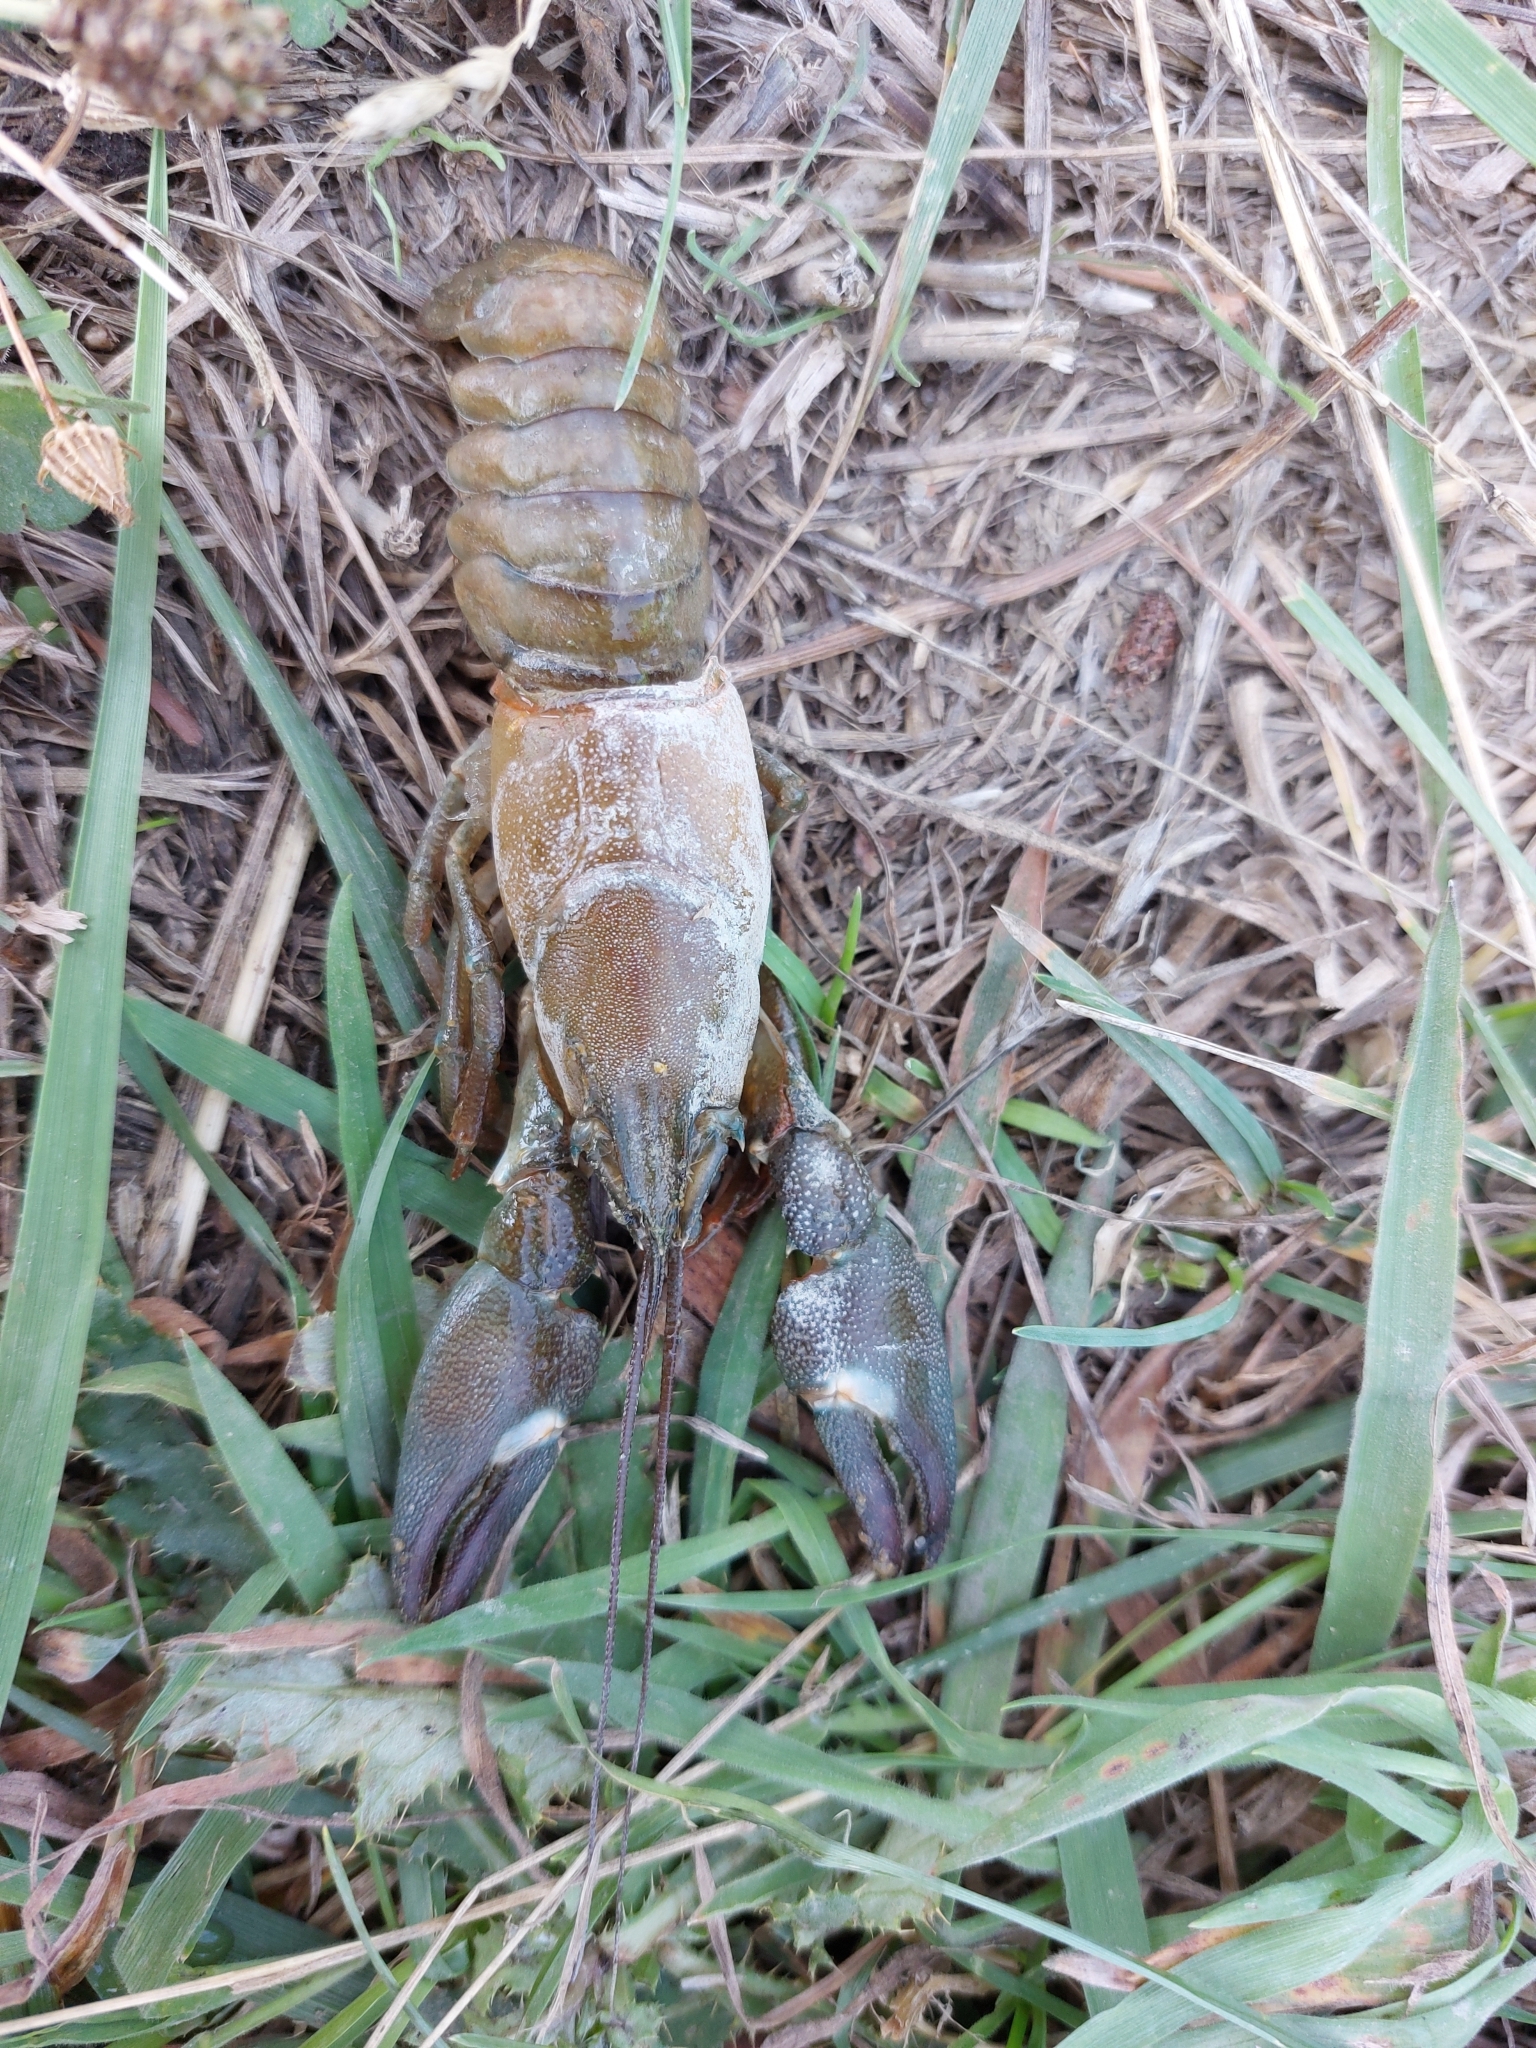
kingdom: Animalia
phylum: Arthropoda
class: Malacostraca
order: Decapoda
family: Astacidae
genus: Pacifastacus
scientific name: Pacifastacus leniusculus
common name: Signal crayfish
